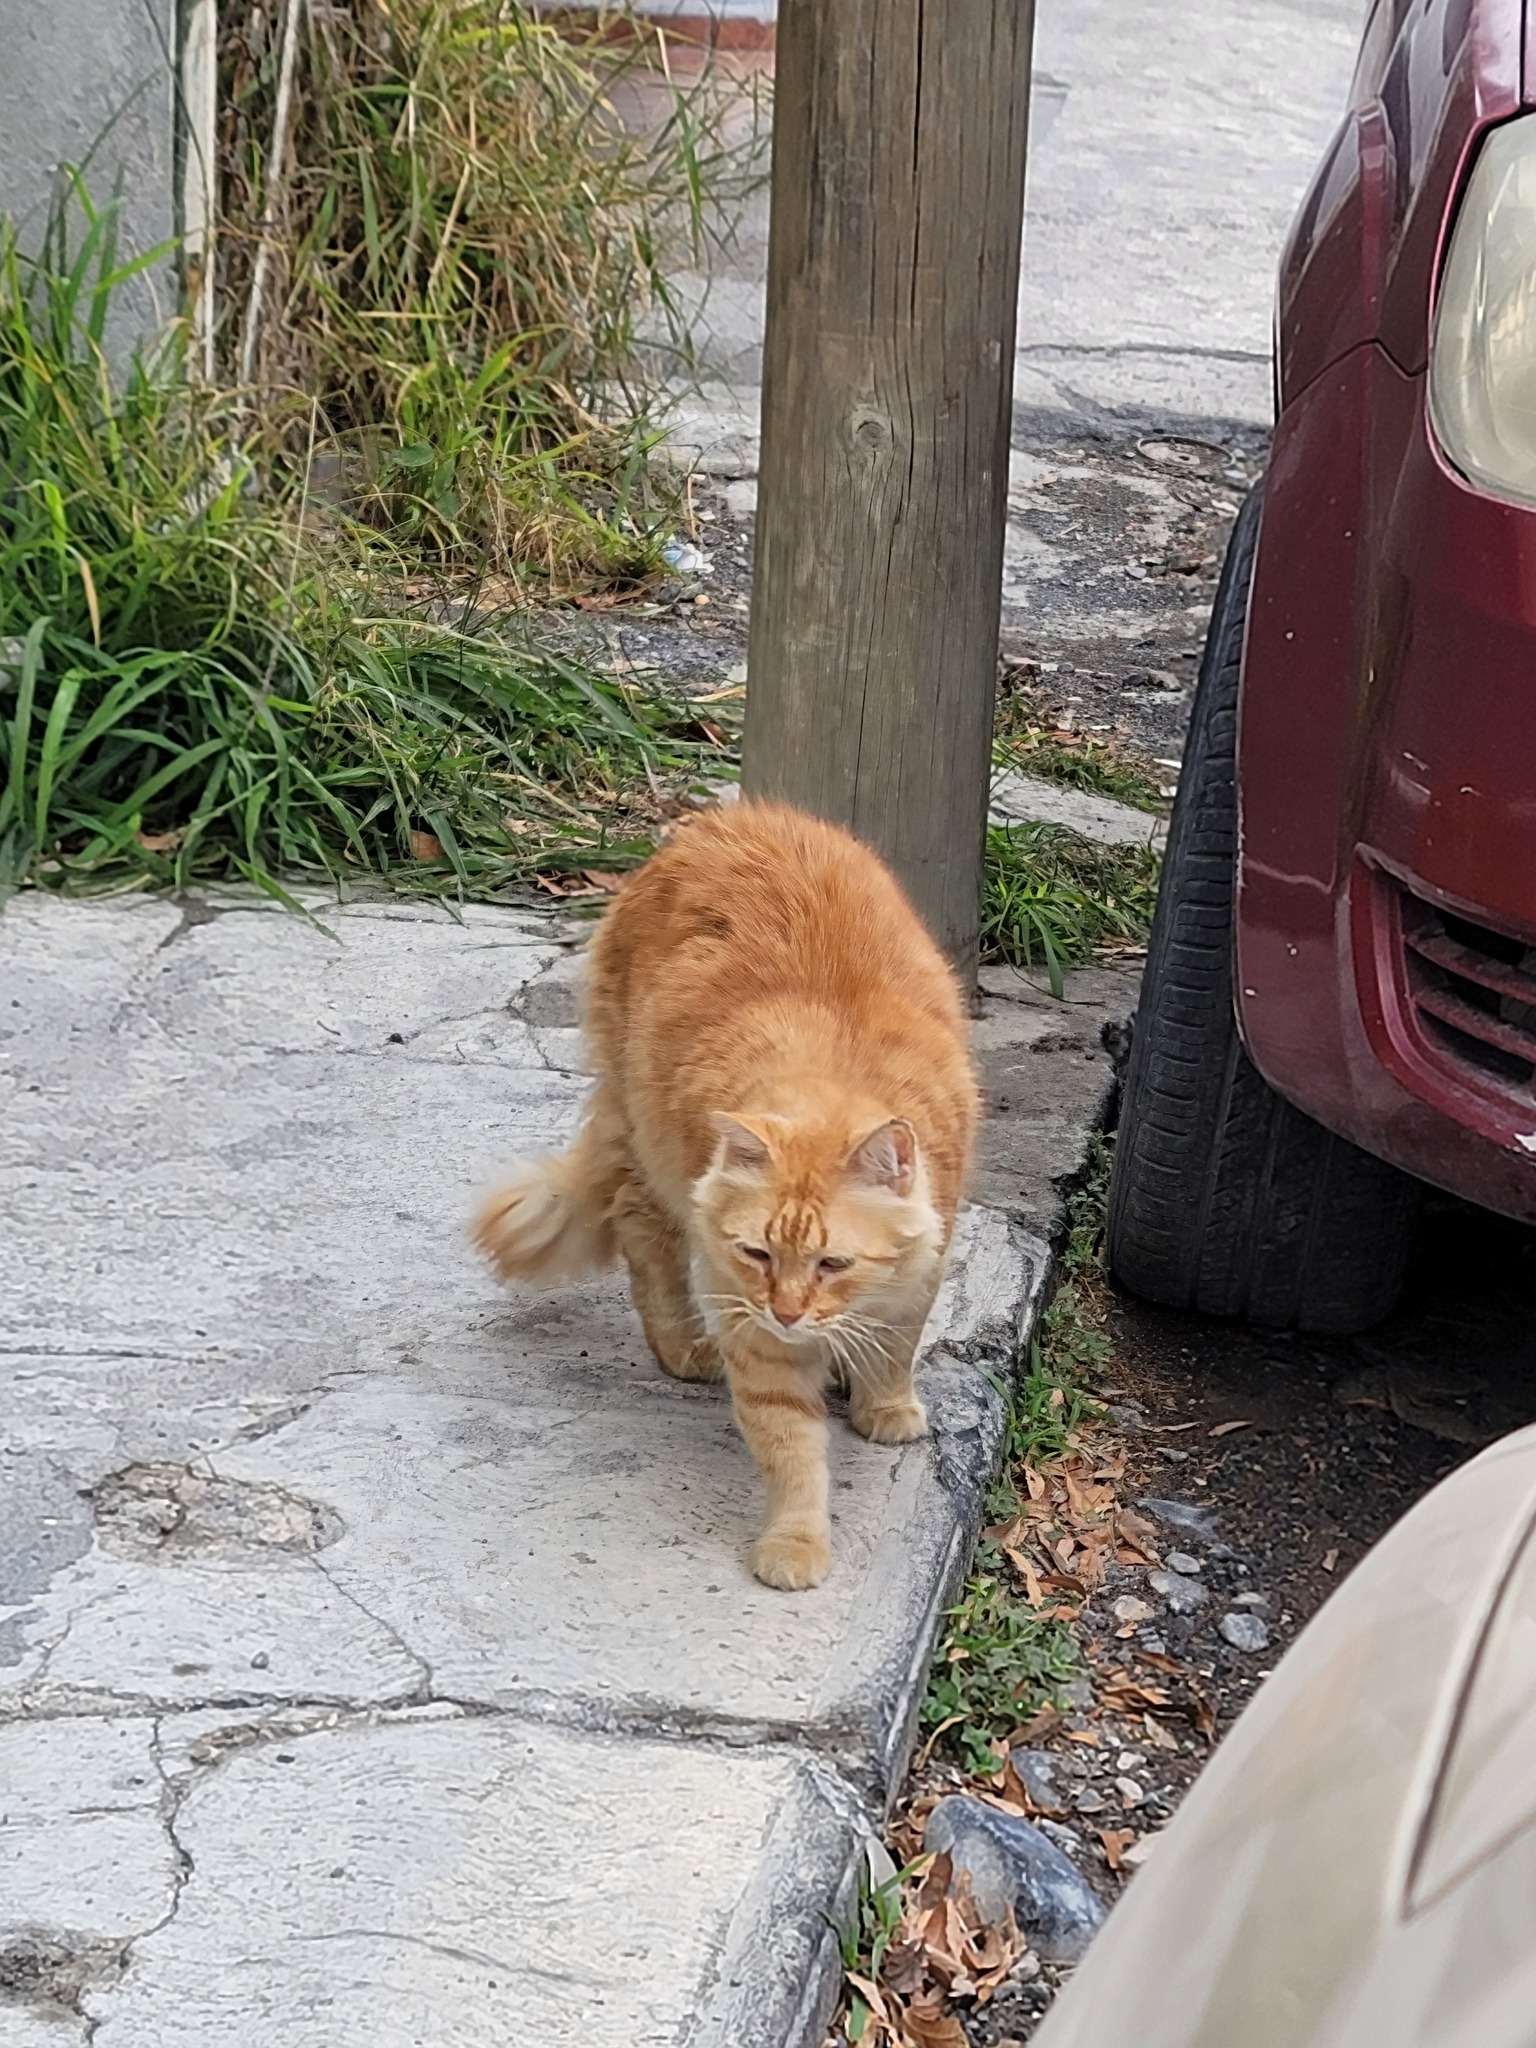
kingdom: Animalia
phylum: Chordata
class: Mammalia
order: Carnivora
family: Felidae
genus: Felis
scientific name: Felis catus
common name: Domestic cat
